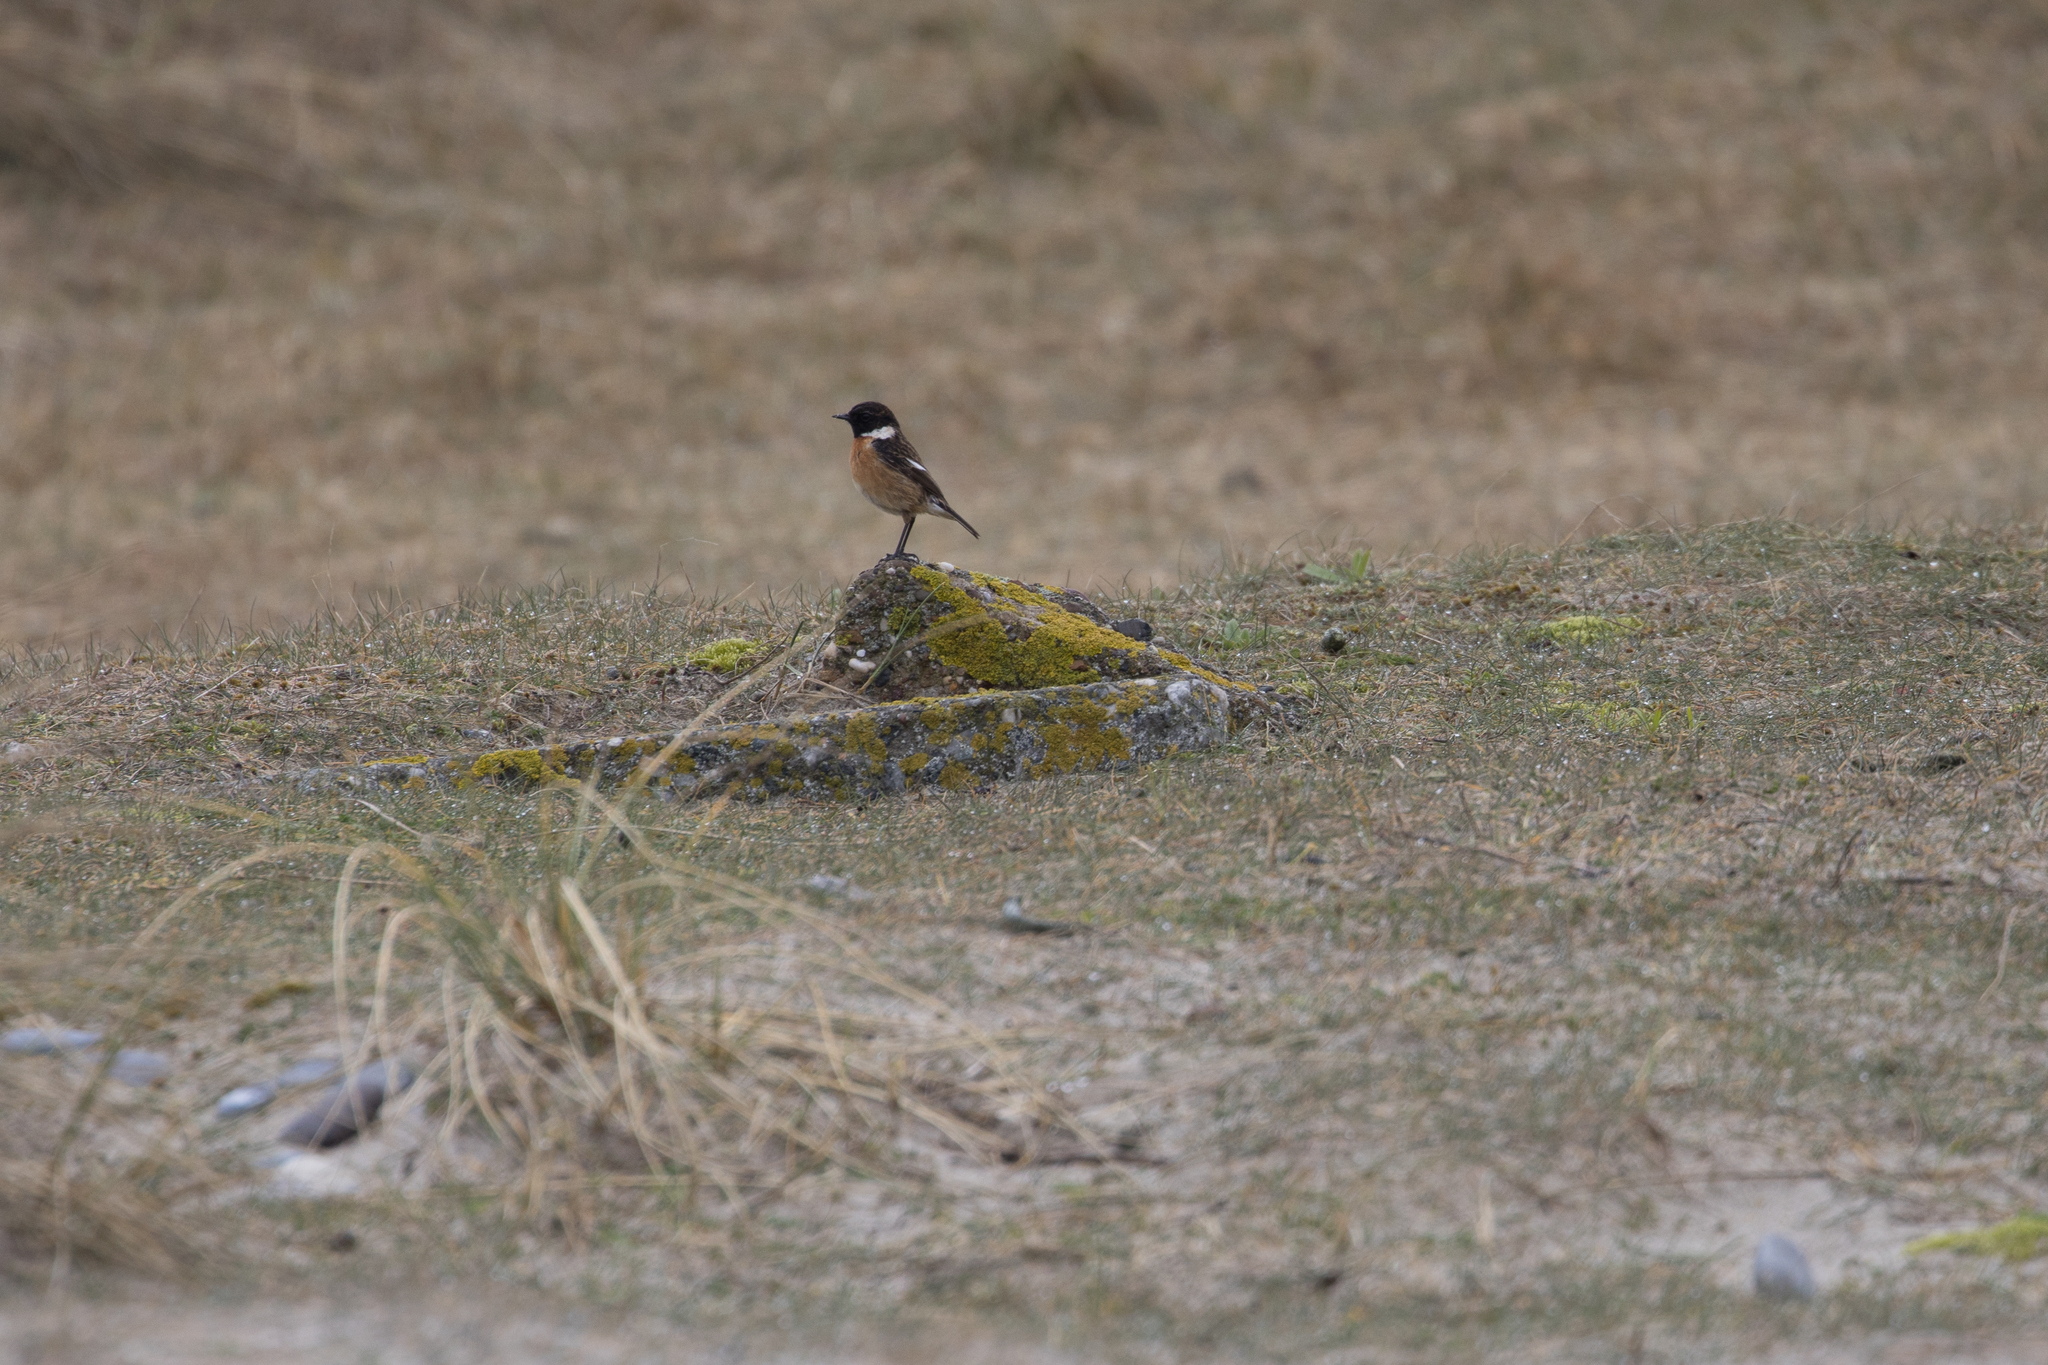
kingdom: Animalia
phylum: Chordata
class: Aves
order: Passeriformes
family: Muscicapidae
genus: Saxicola
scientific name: Saxicola rubicola
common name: European stonechat
